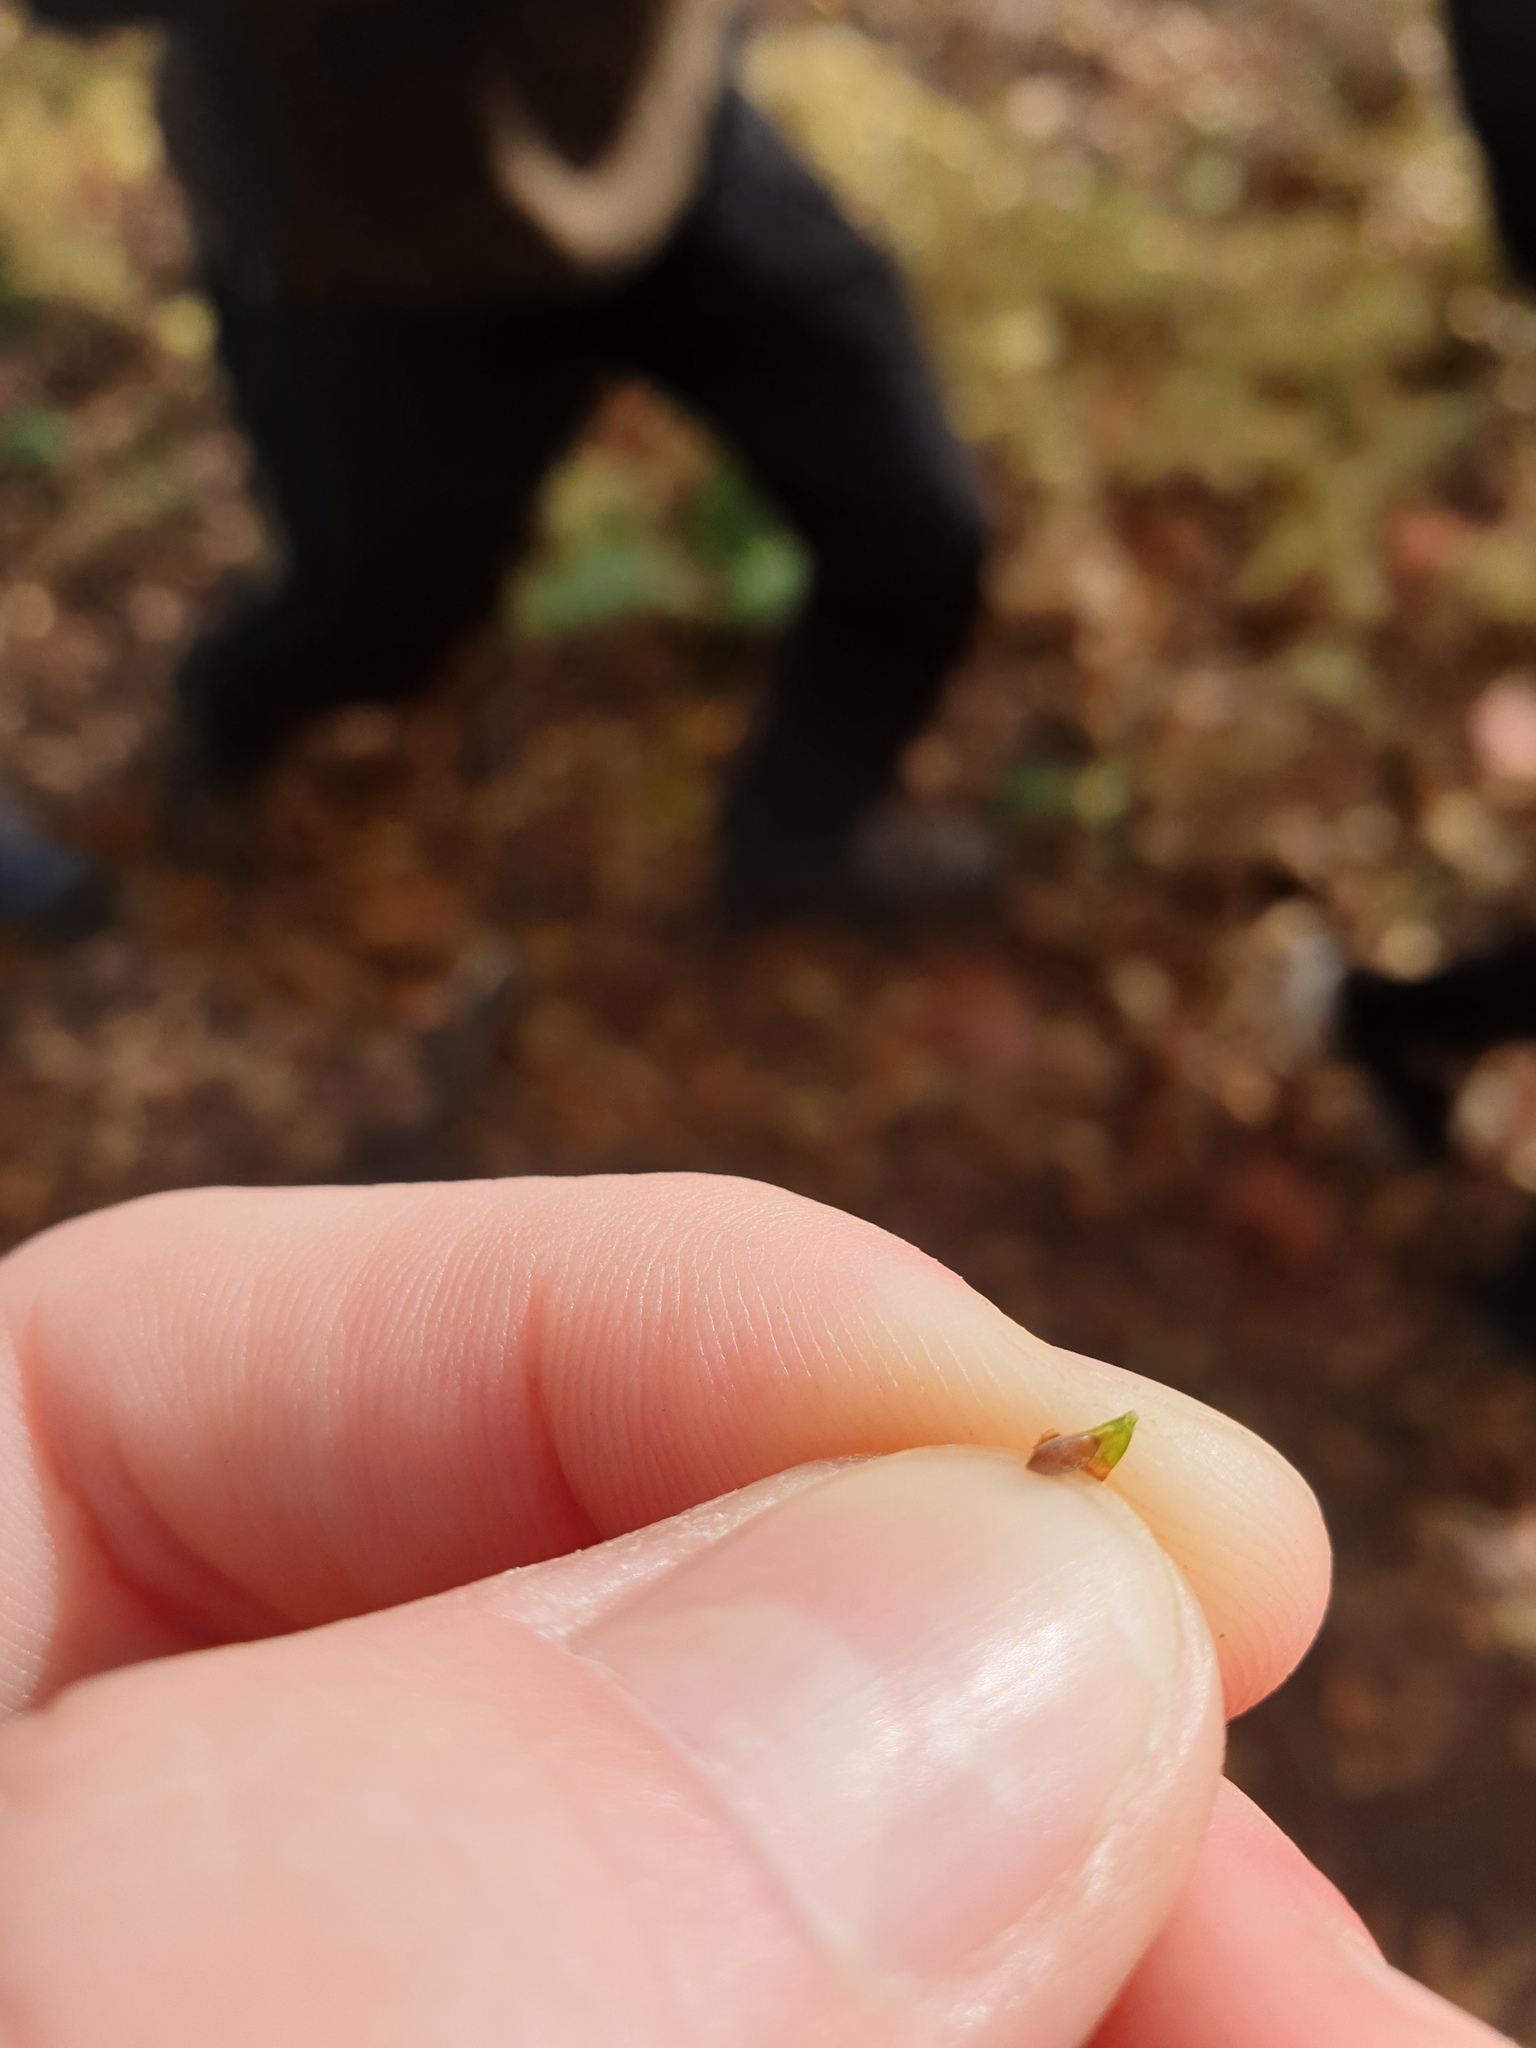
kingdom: Plantae
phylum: Tracheophyta
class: Liliopsida
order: Poales
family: Cyperaceae
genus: Carex
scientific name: Carex debilis
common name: White-edge sedge
